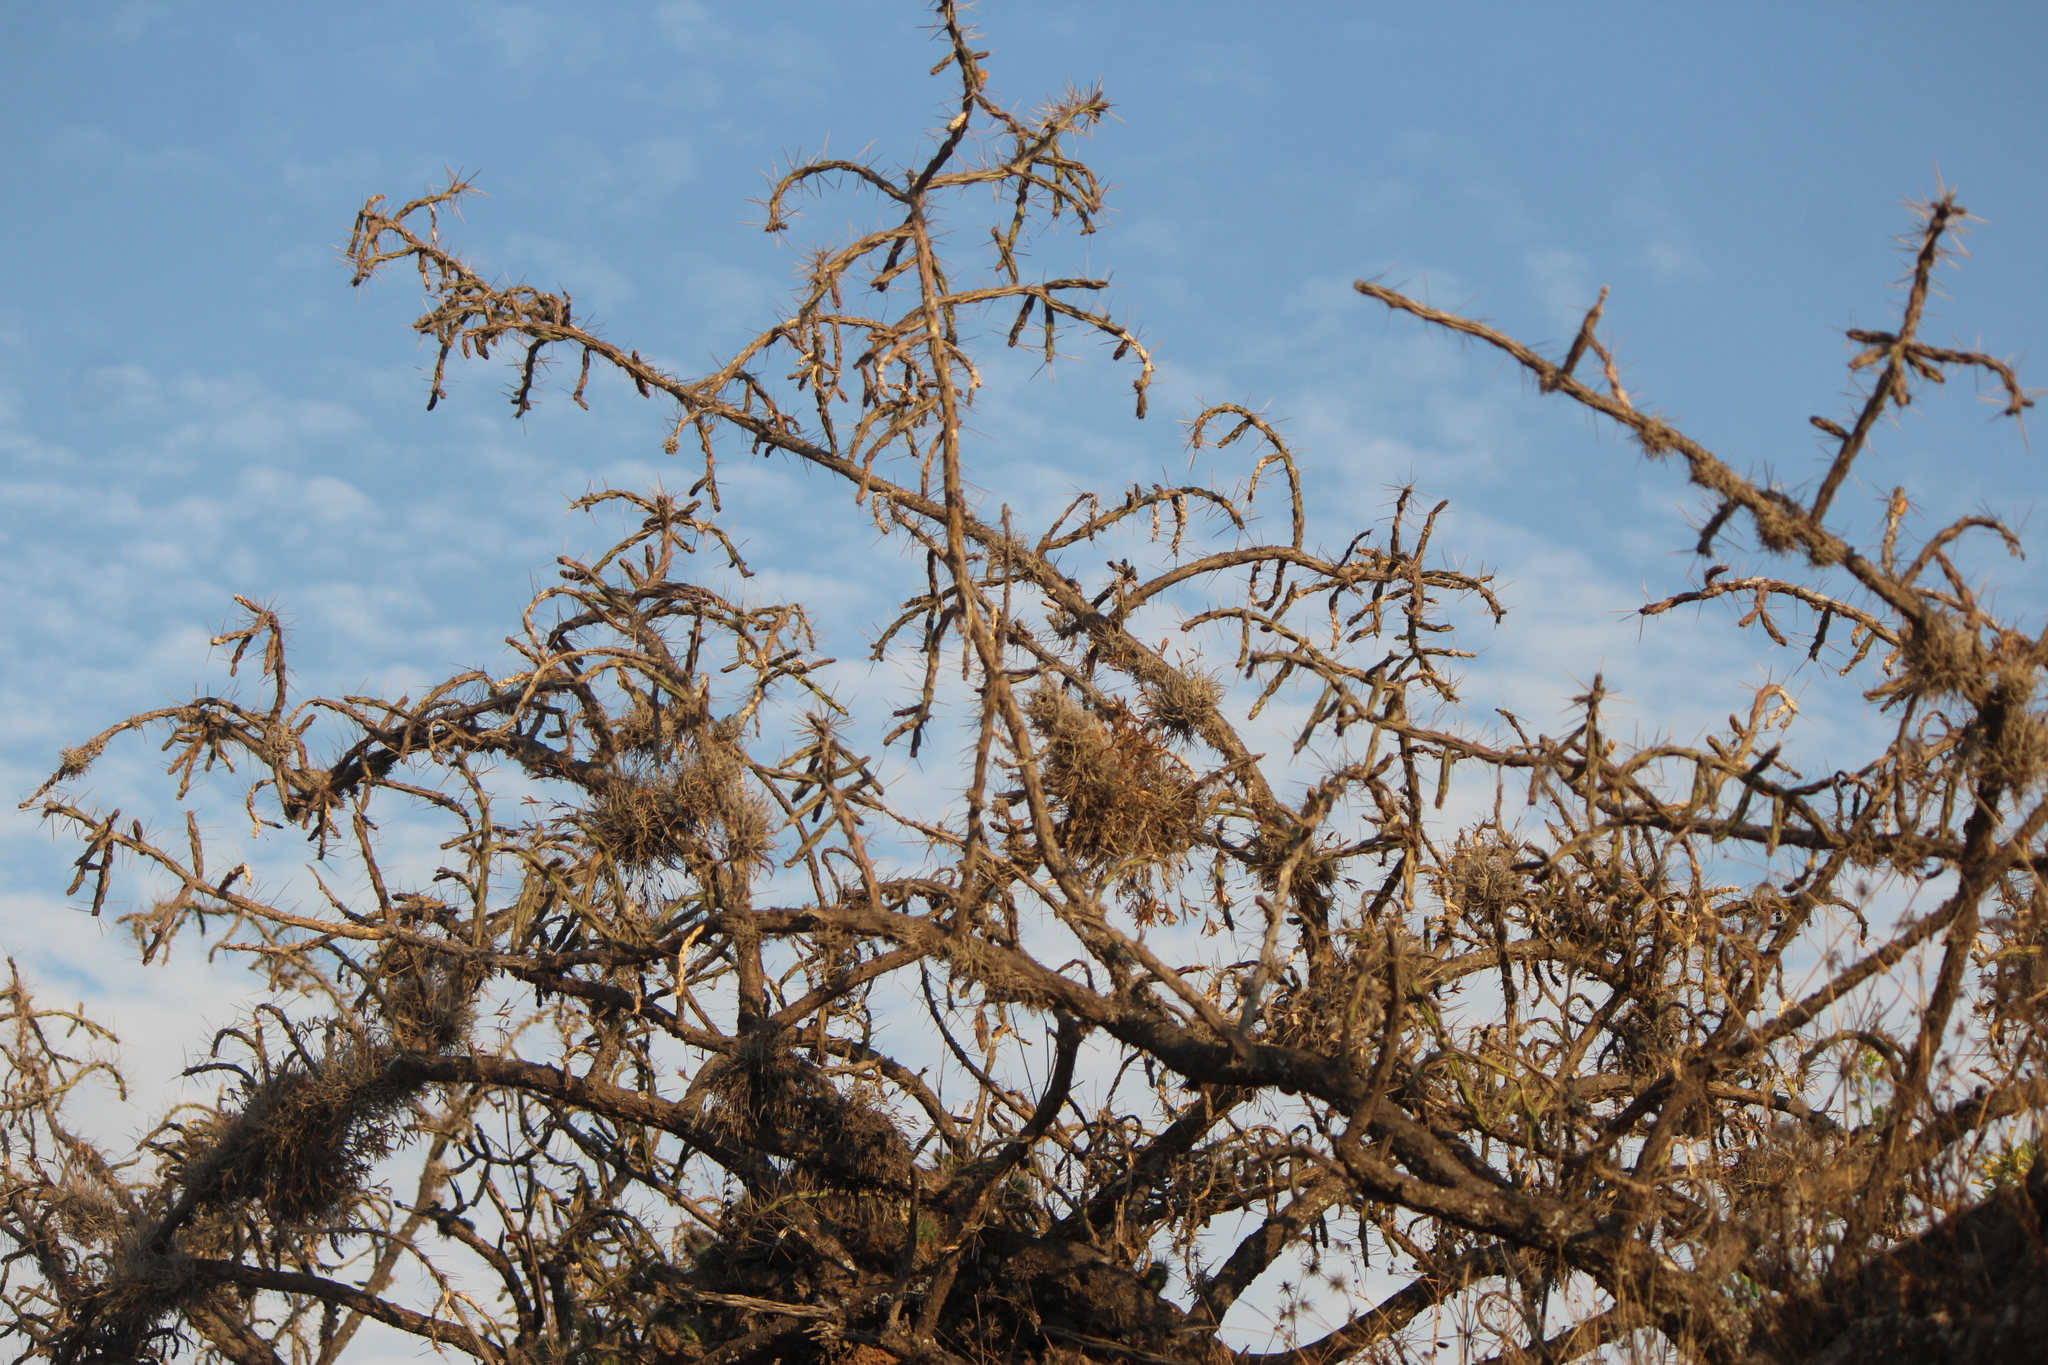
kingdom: Plantae
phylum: Tracheophyta
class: Magnoliopsida
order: Caryophyllales
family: Cactaceae
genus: Cylindropuntia
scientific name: Cylindropuntia kleiniae
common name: Klein's cholla
